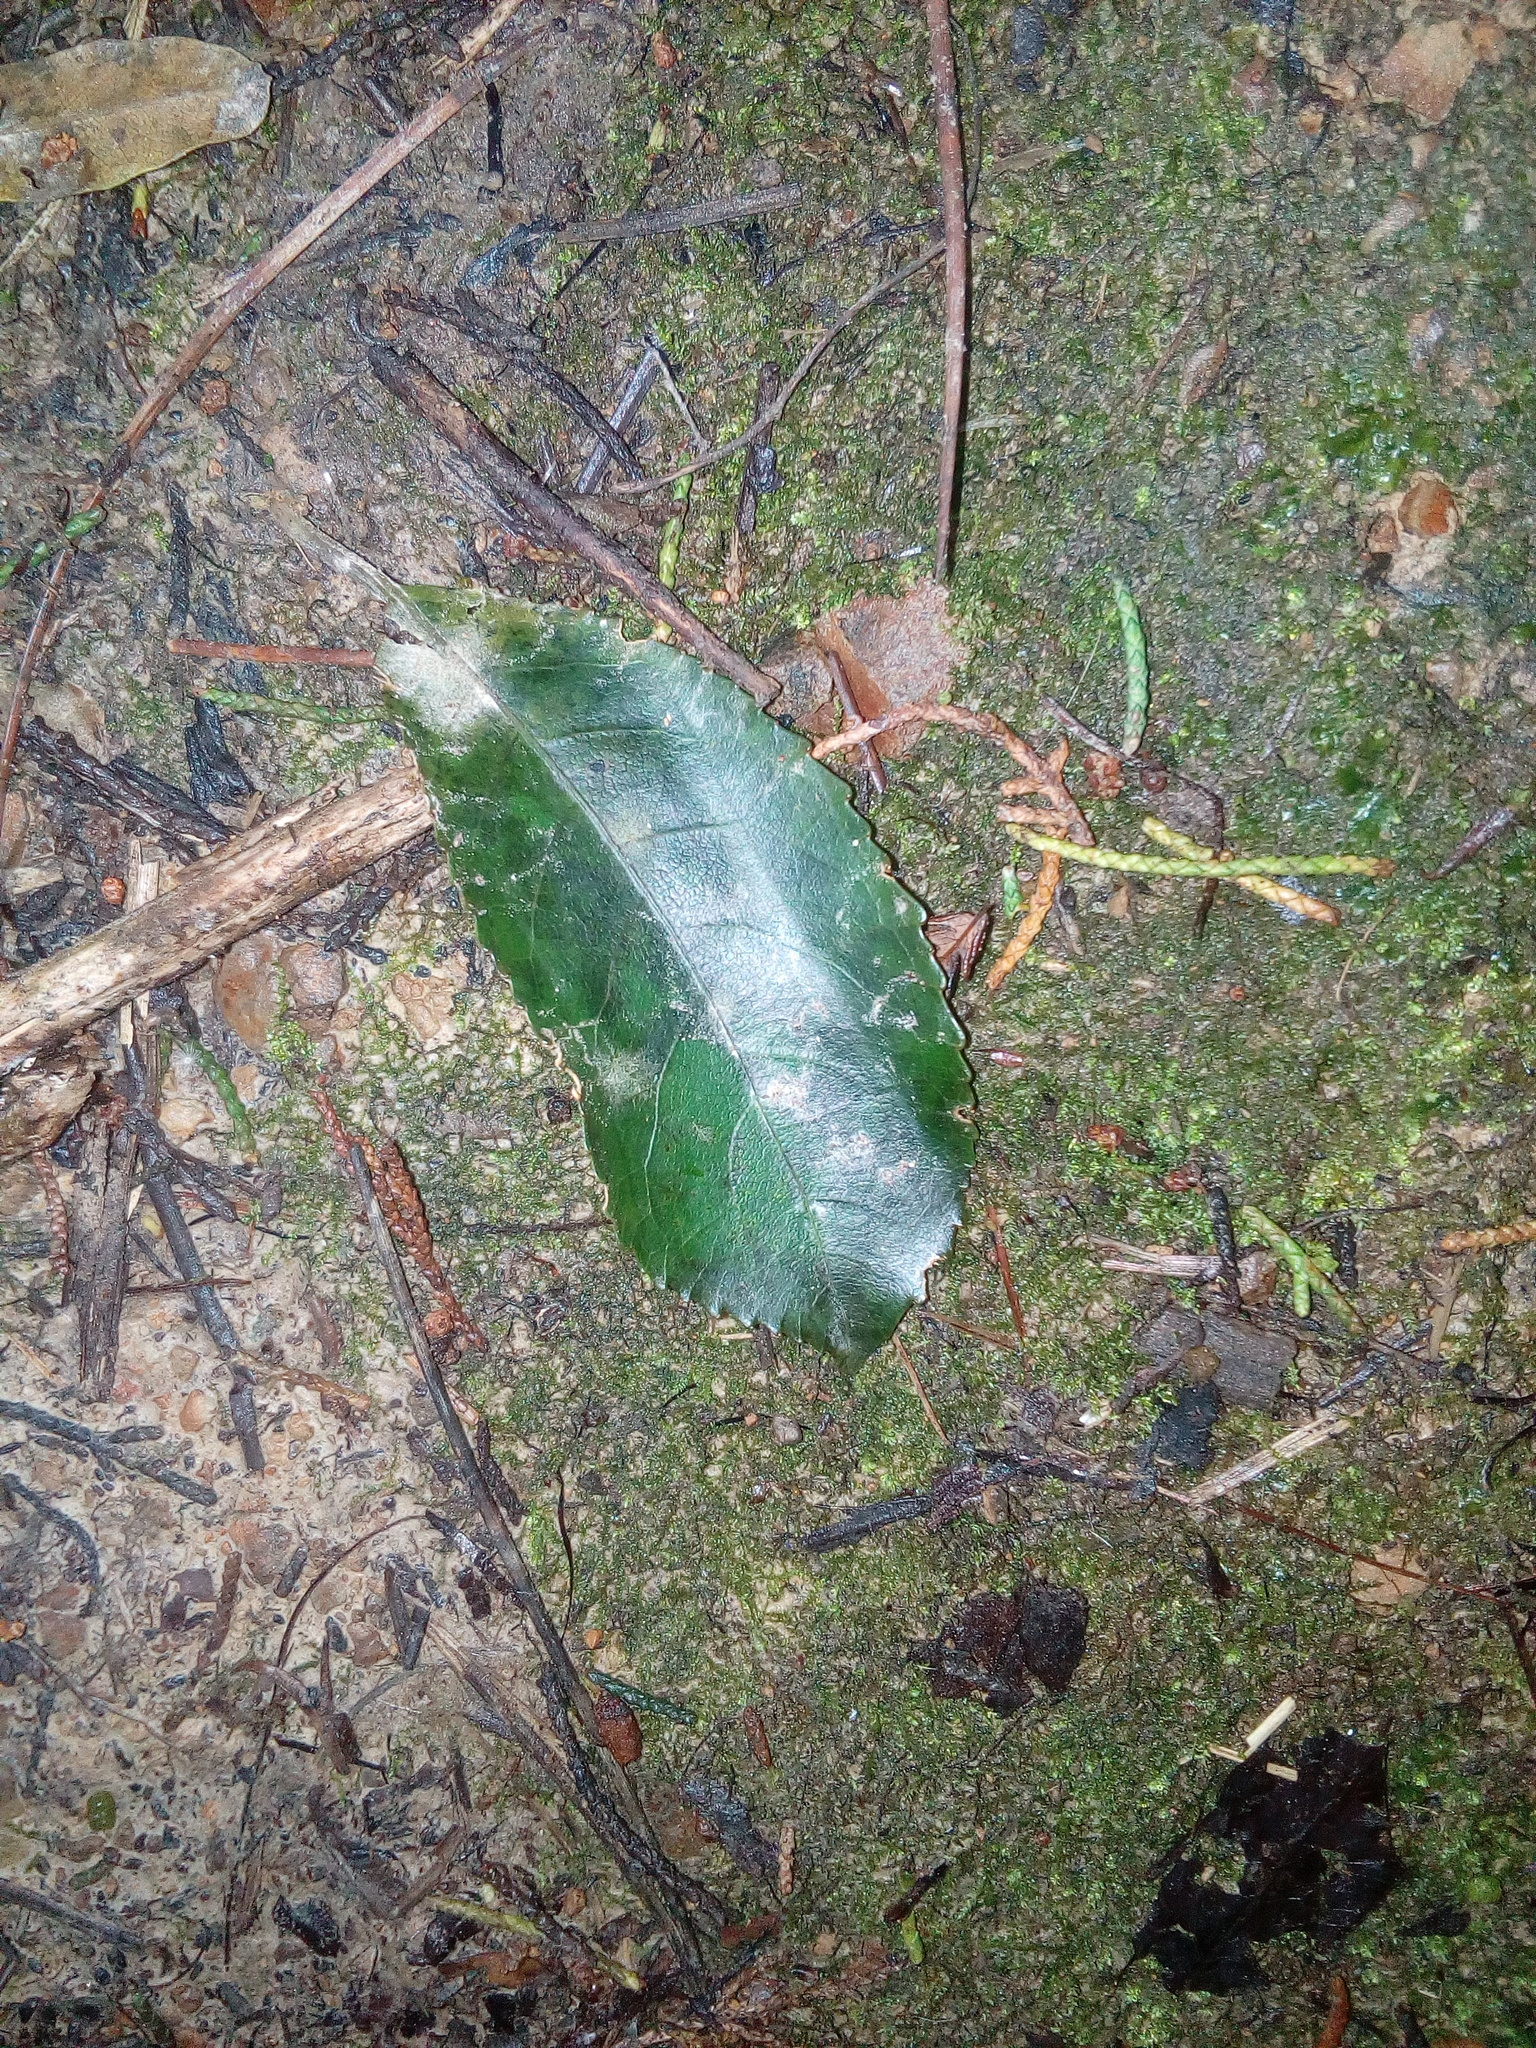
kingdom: Plantae
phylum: Tracheophyta
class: Magnoliopsida
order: Malpighiales
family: Violaceae
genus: Melicytus
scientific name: Melicytus ramiflorus
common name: Mahoe
